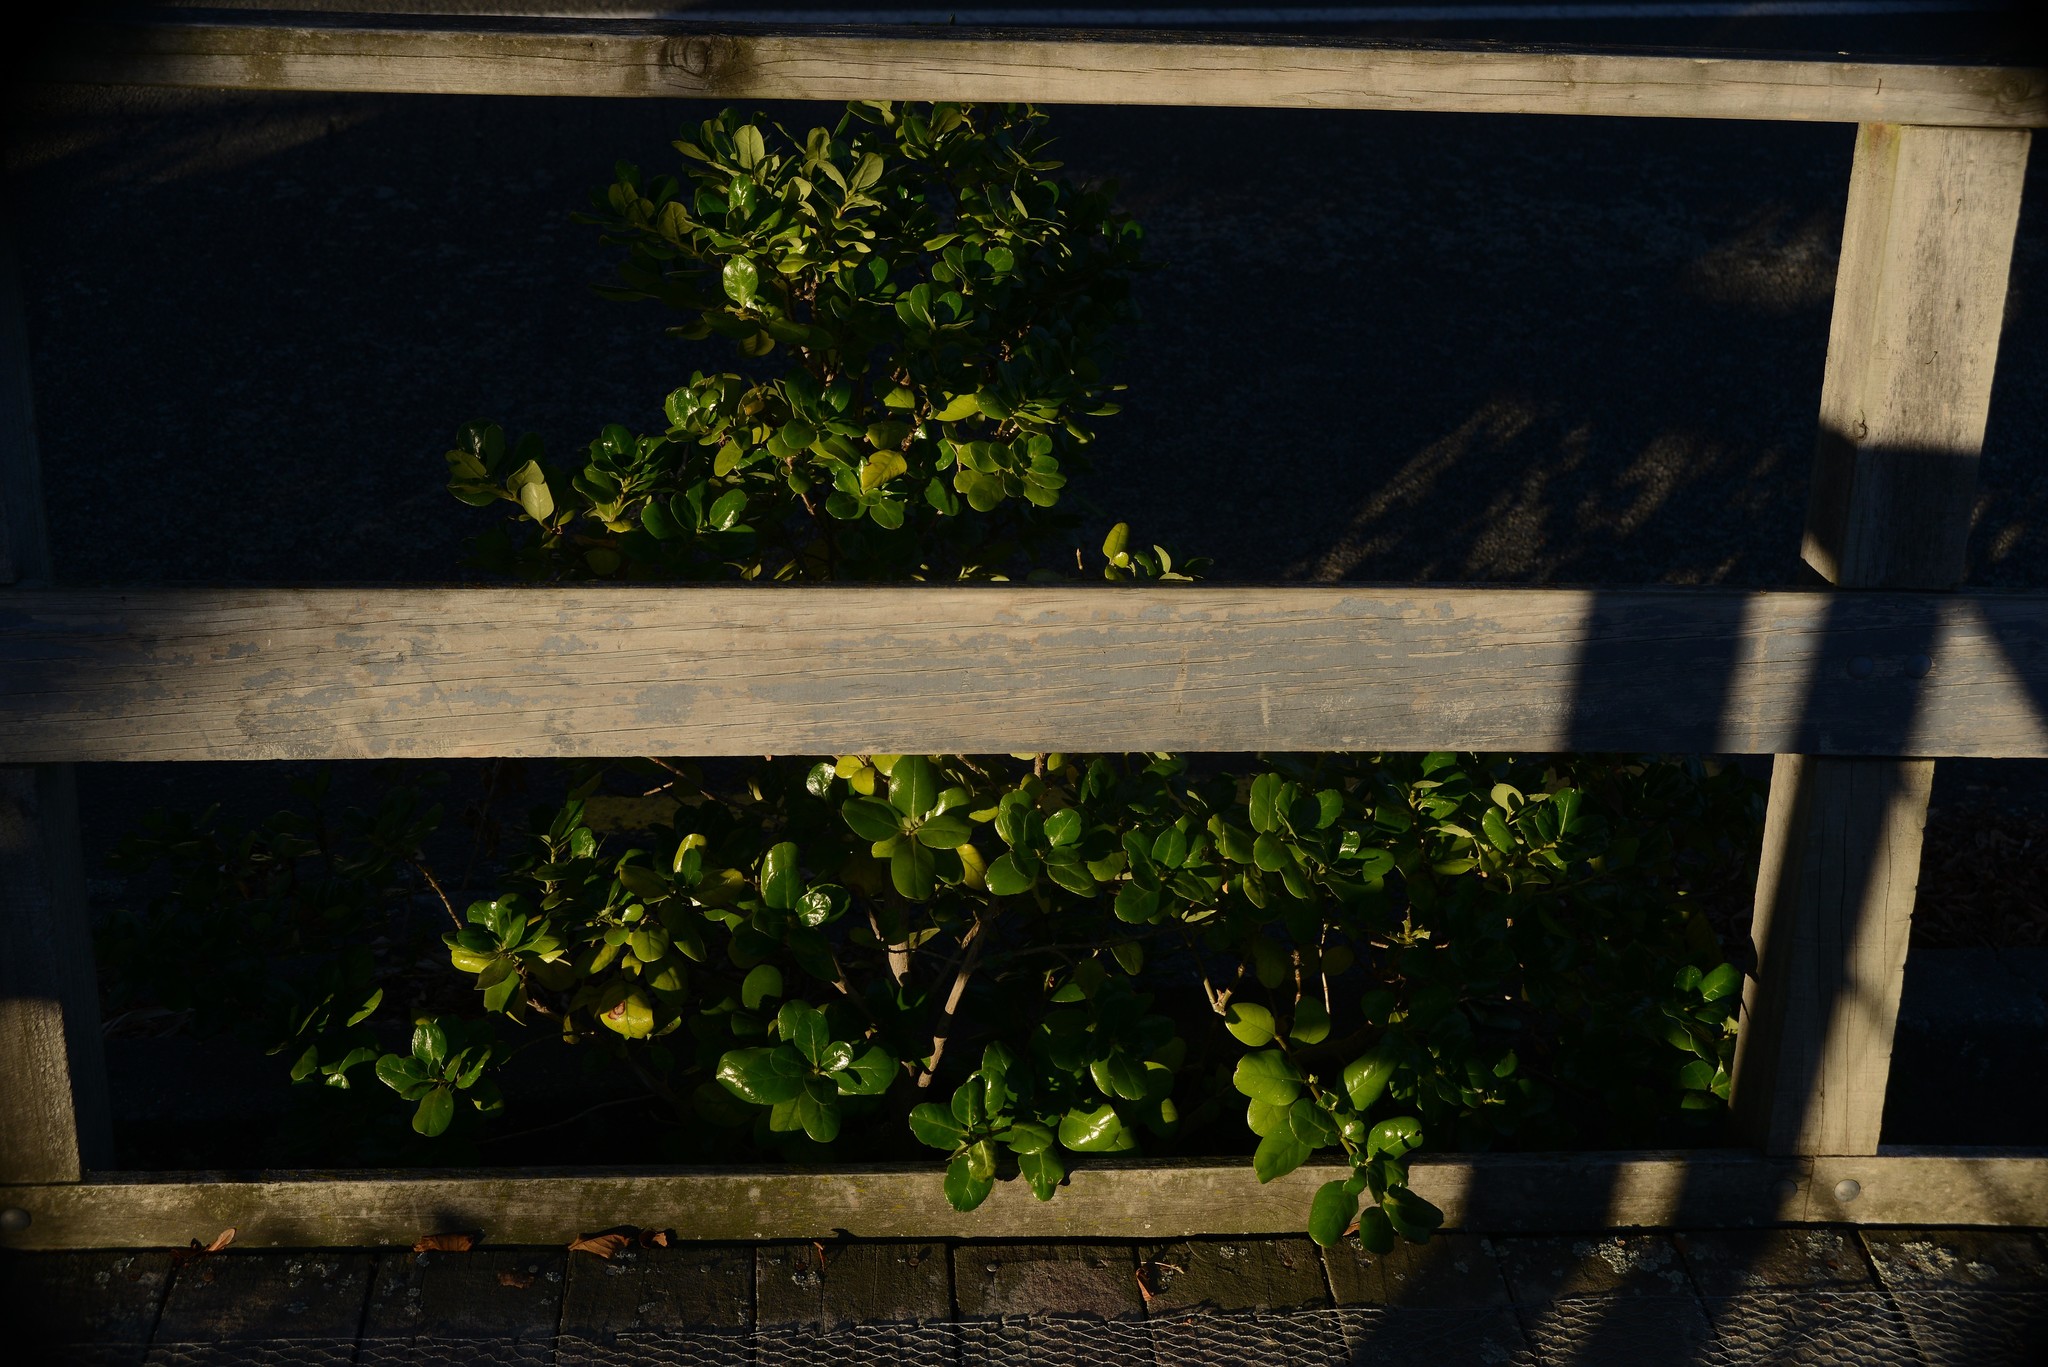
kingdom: Plantae
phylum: Tracheophyta
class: Magnoliopsida
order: Gentianales
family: Rubiaceae
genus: Coprosma
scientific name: Coprosma repens
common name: Tree bedstraw
